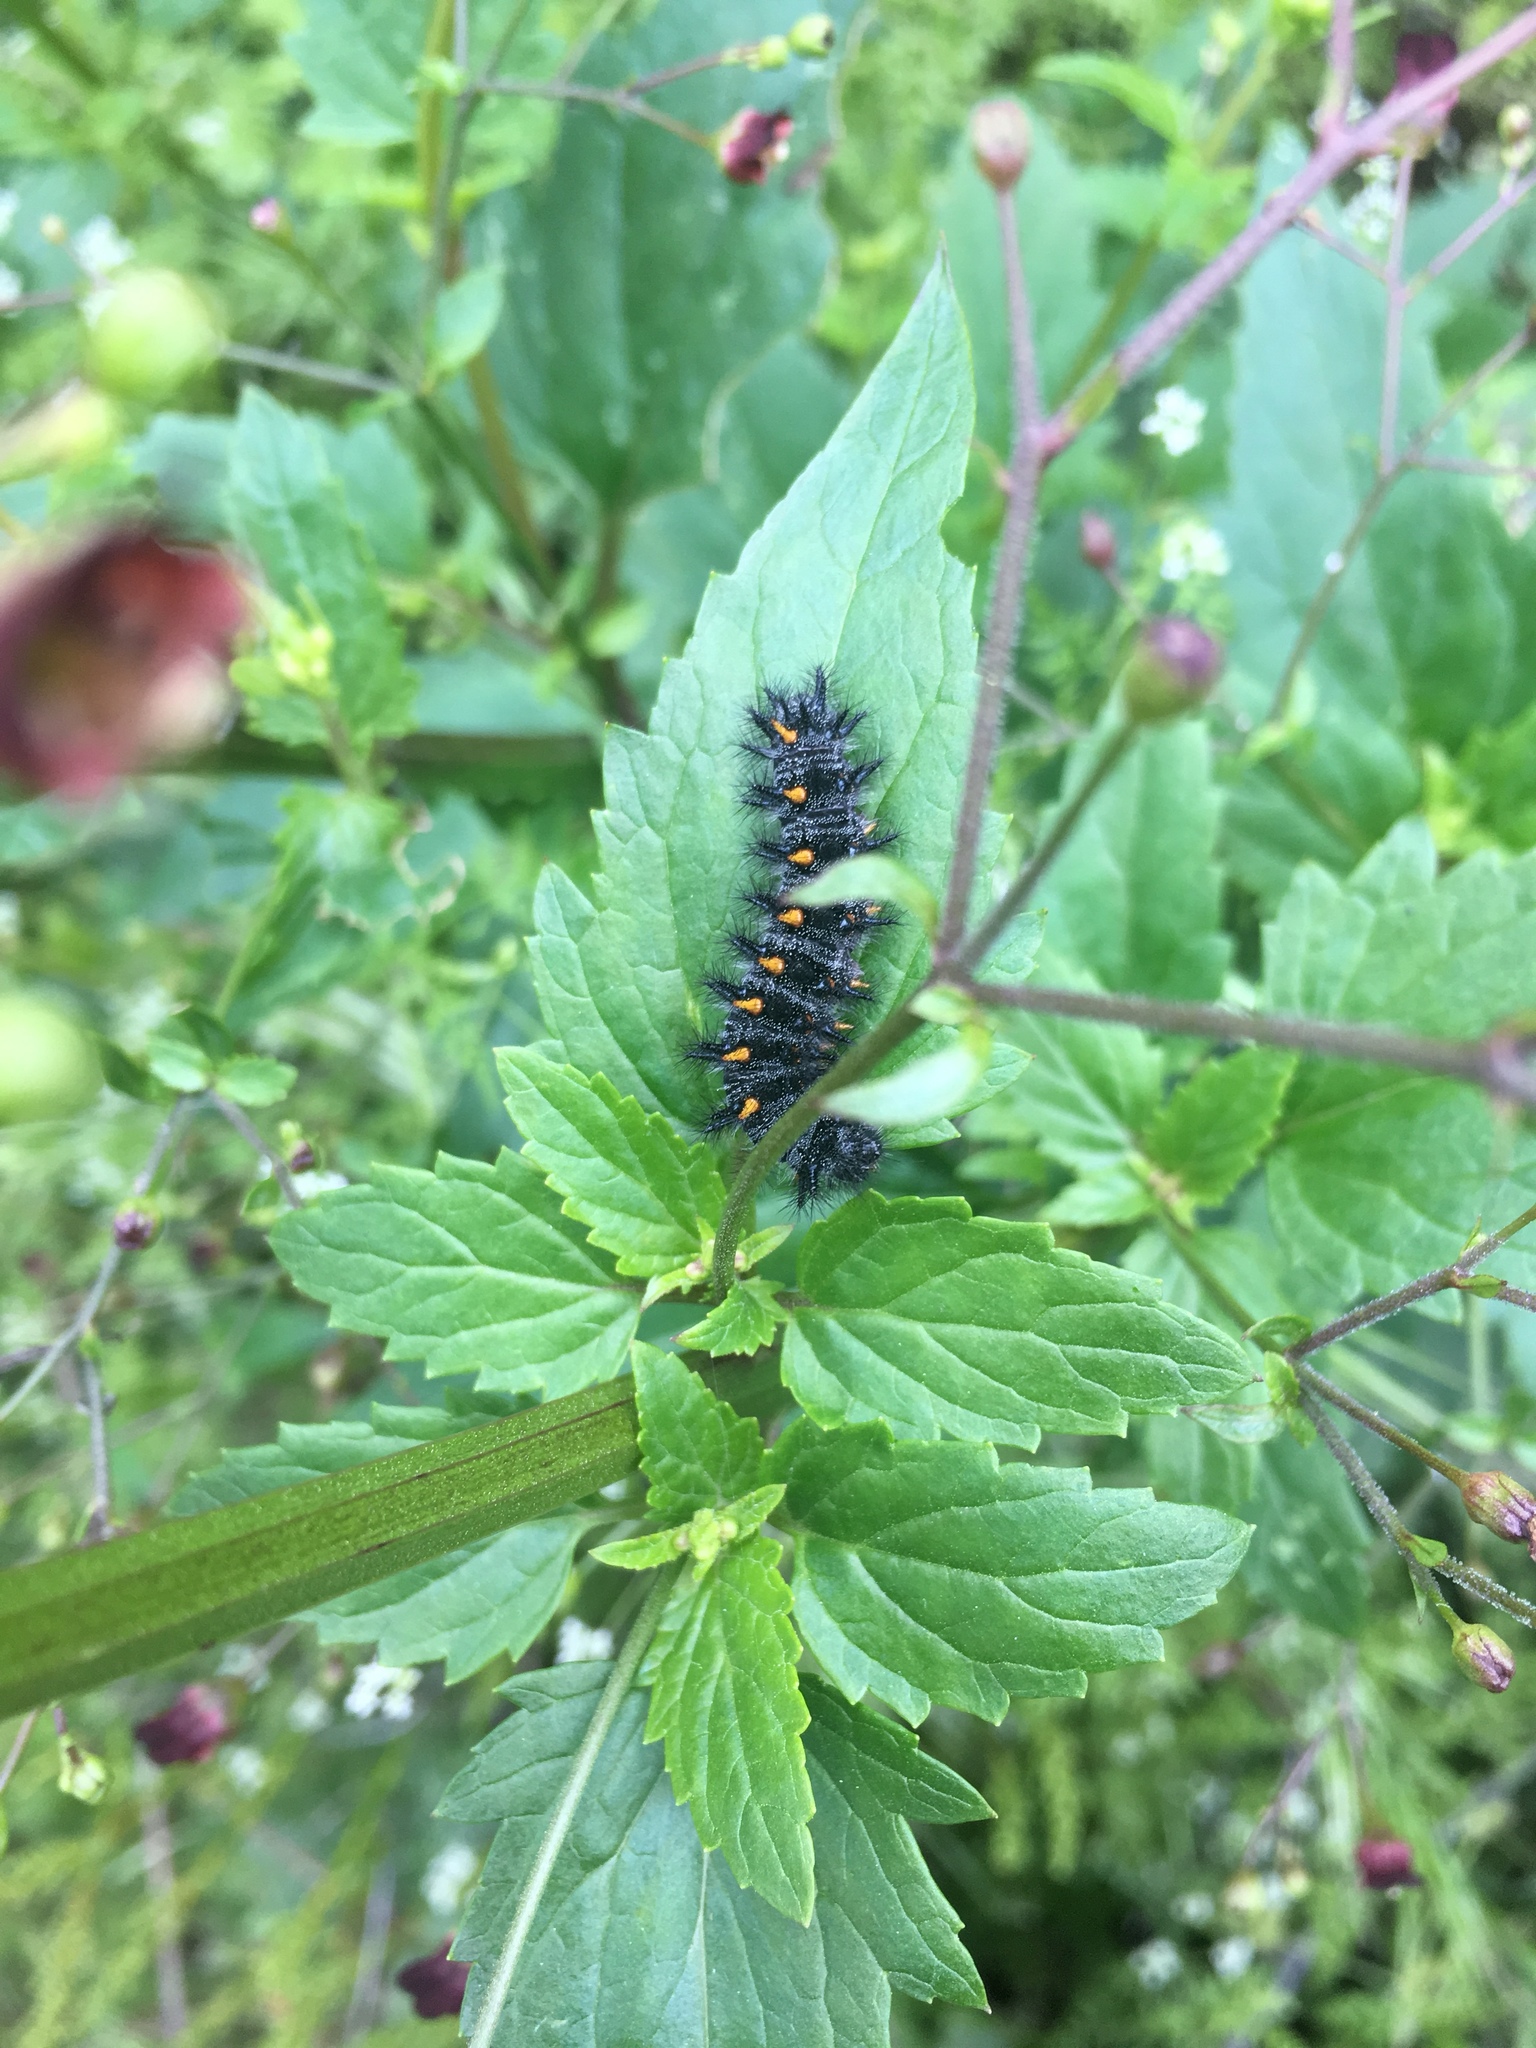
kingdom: Animalia
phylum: Arthropoda
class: Insecta
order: Lepidoptera
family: Nymphalidae
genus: Occidryas
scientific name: Occidryas chalcedona
